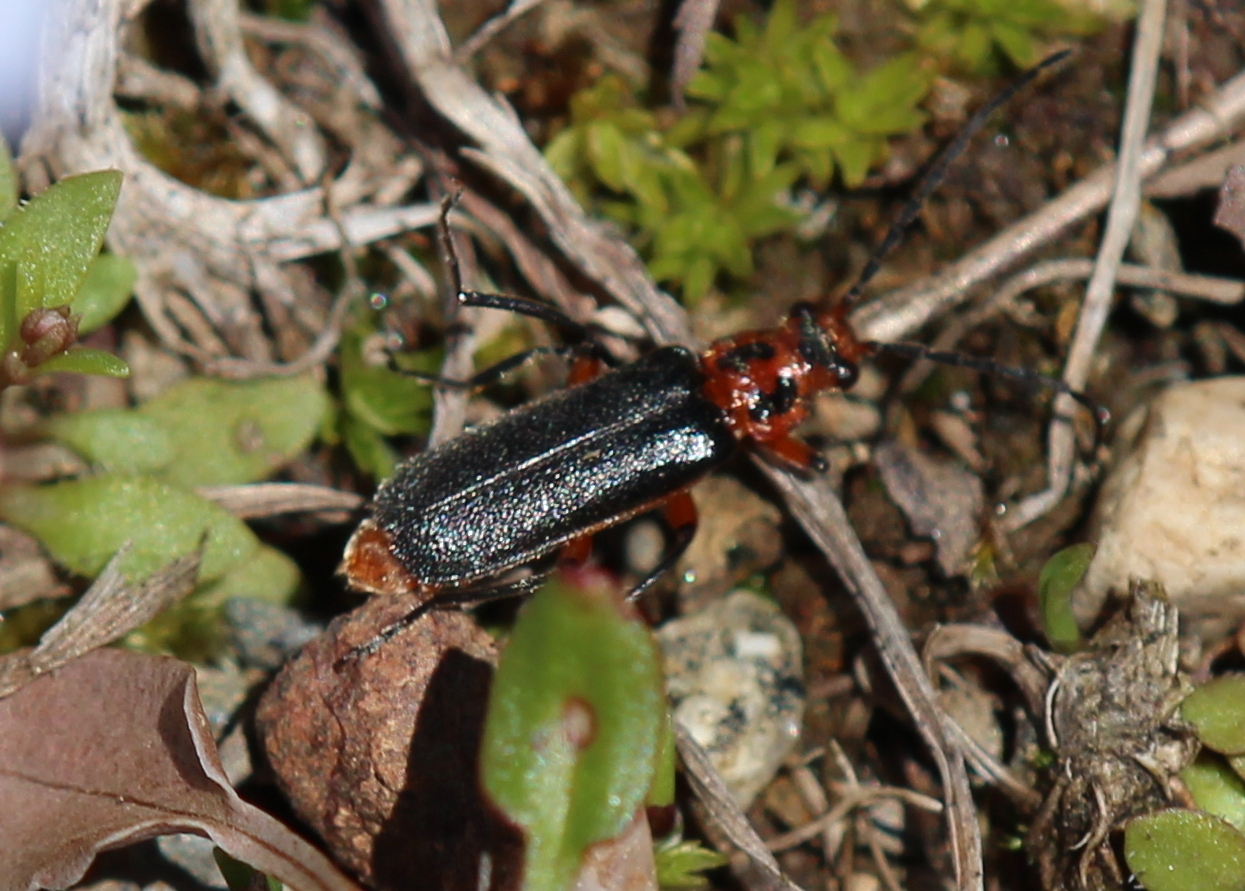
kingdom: Animalia
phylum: Arthropoda
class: Insecta
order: Coleoptera
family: Cantharidae
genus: Atalantycha
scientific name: Atalantycha bilineata
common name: Two-lined leatherwing
